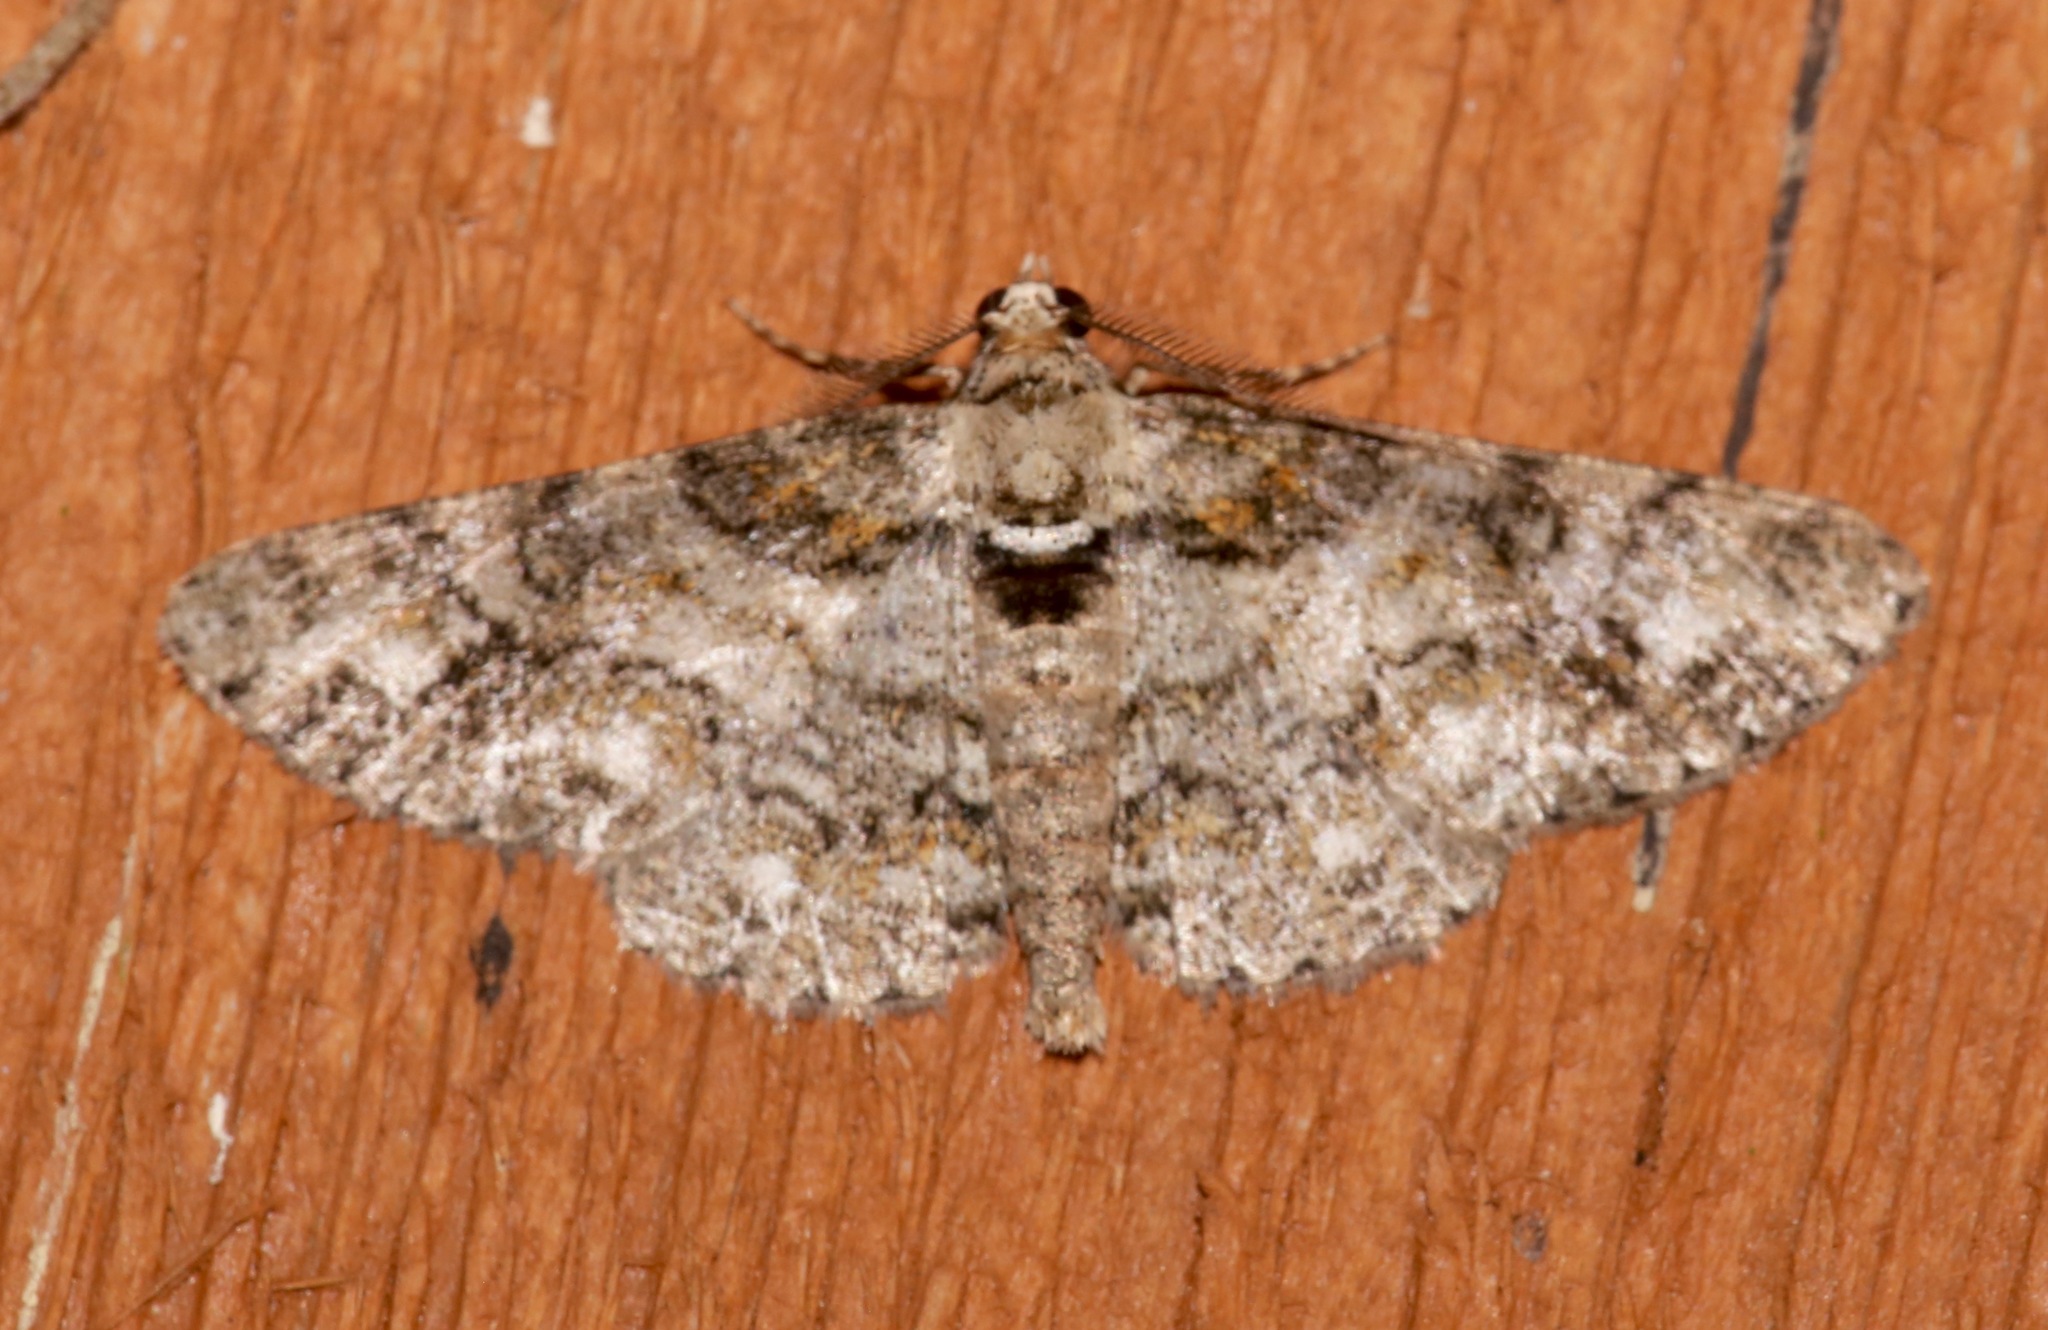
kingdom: Animalia
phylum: Arthropoda
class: Insecta
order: Lepidoptera
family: Geometridae
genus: Cleora
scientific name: Cleora sublunaria
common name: Double-lined gray
